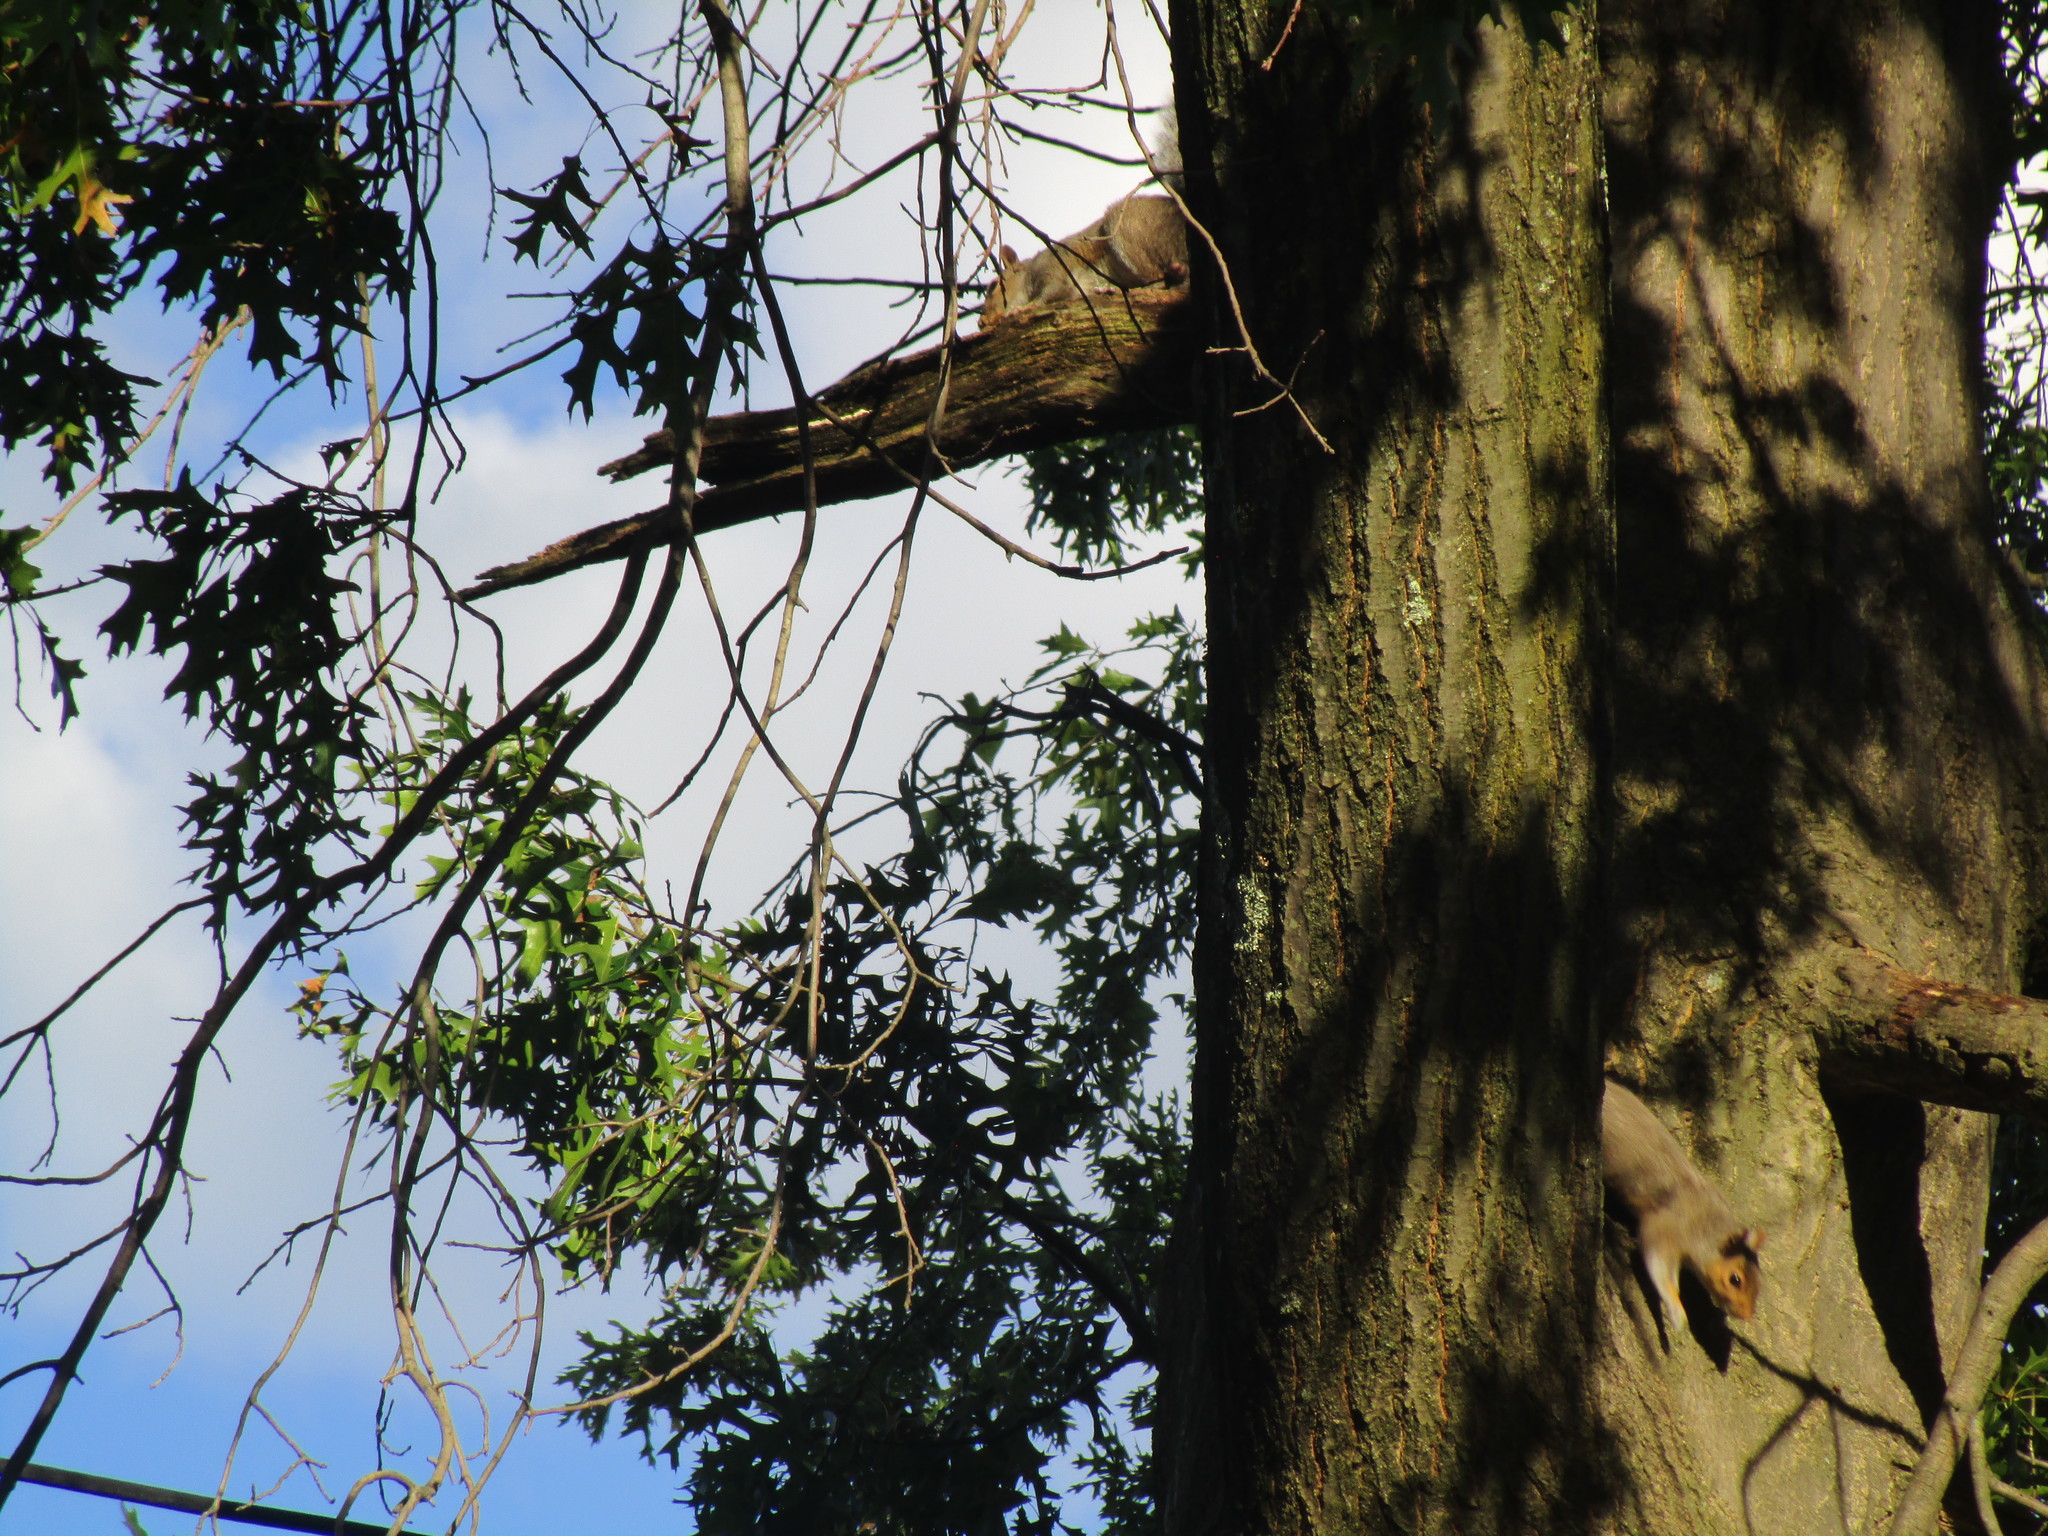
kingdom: Animalia
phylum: Chordata
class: Mammalia
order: Rodentia
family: Sciuridae
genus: Sciurus
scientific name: Sciurus carolinensis
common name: Eastern gray squirrel
